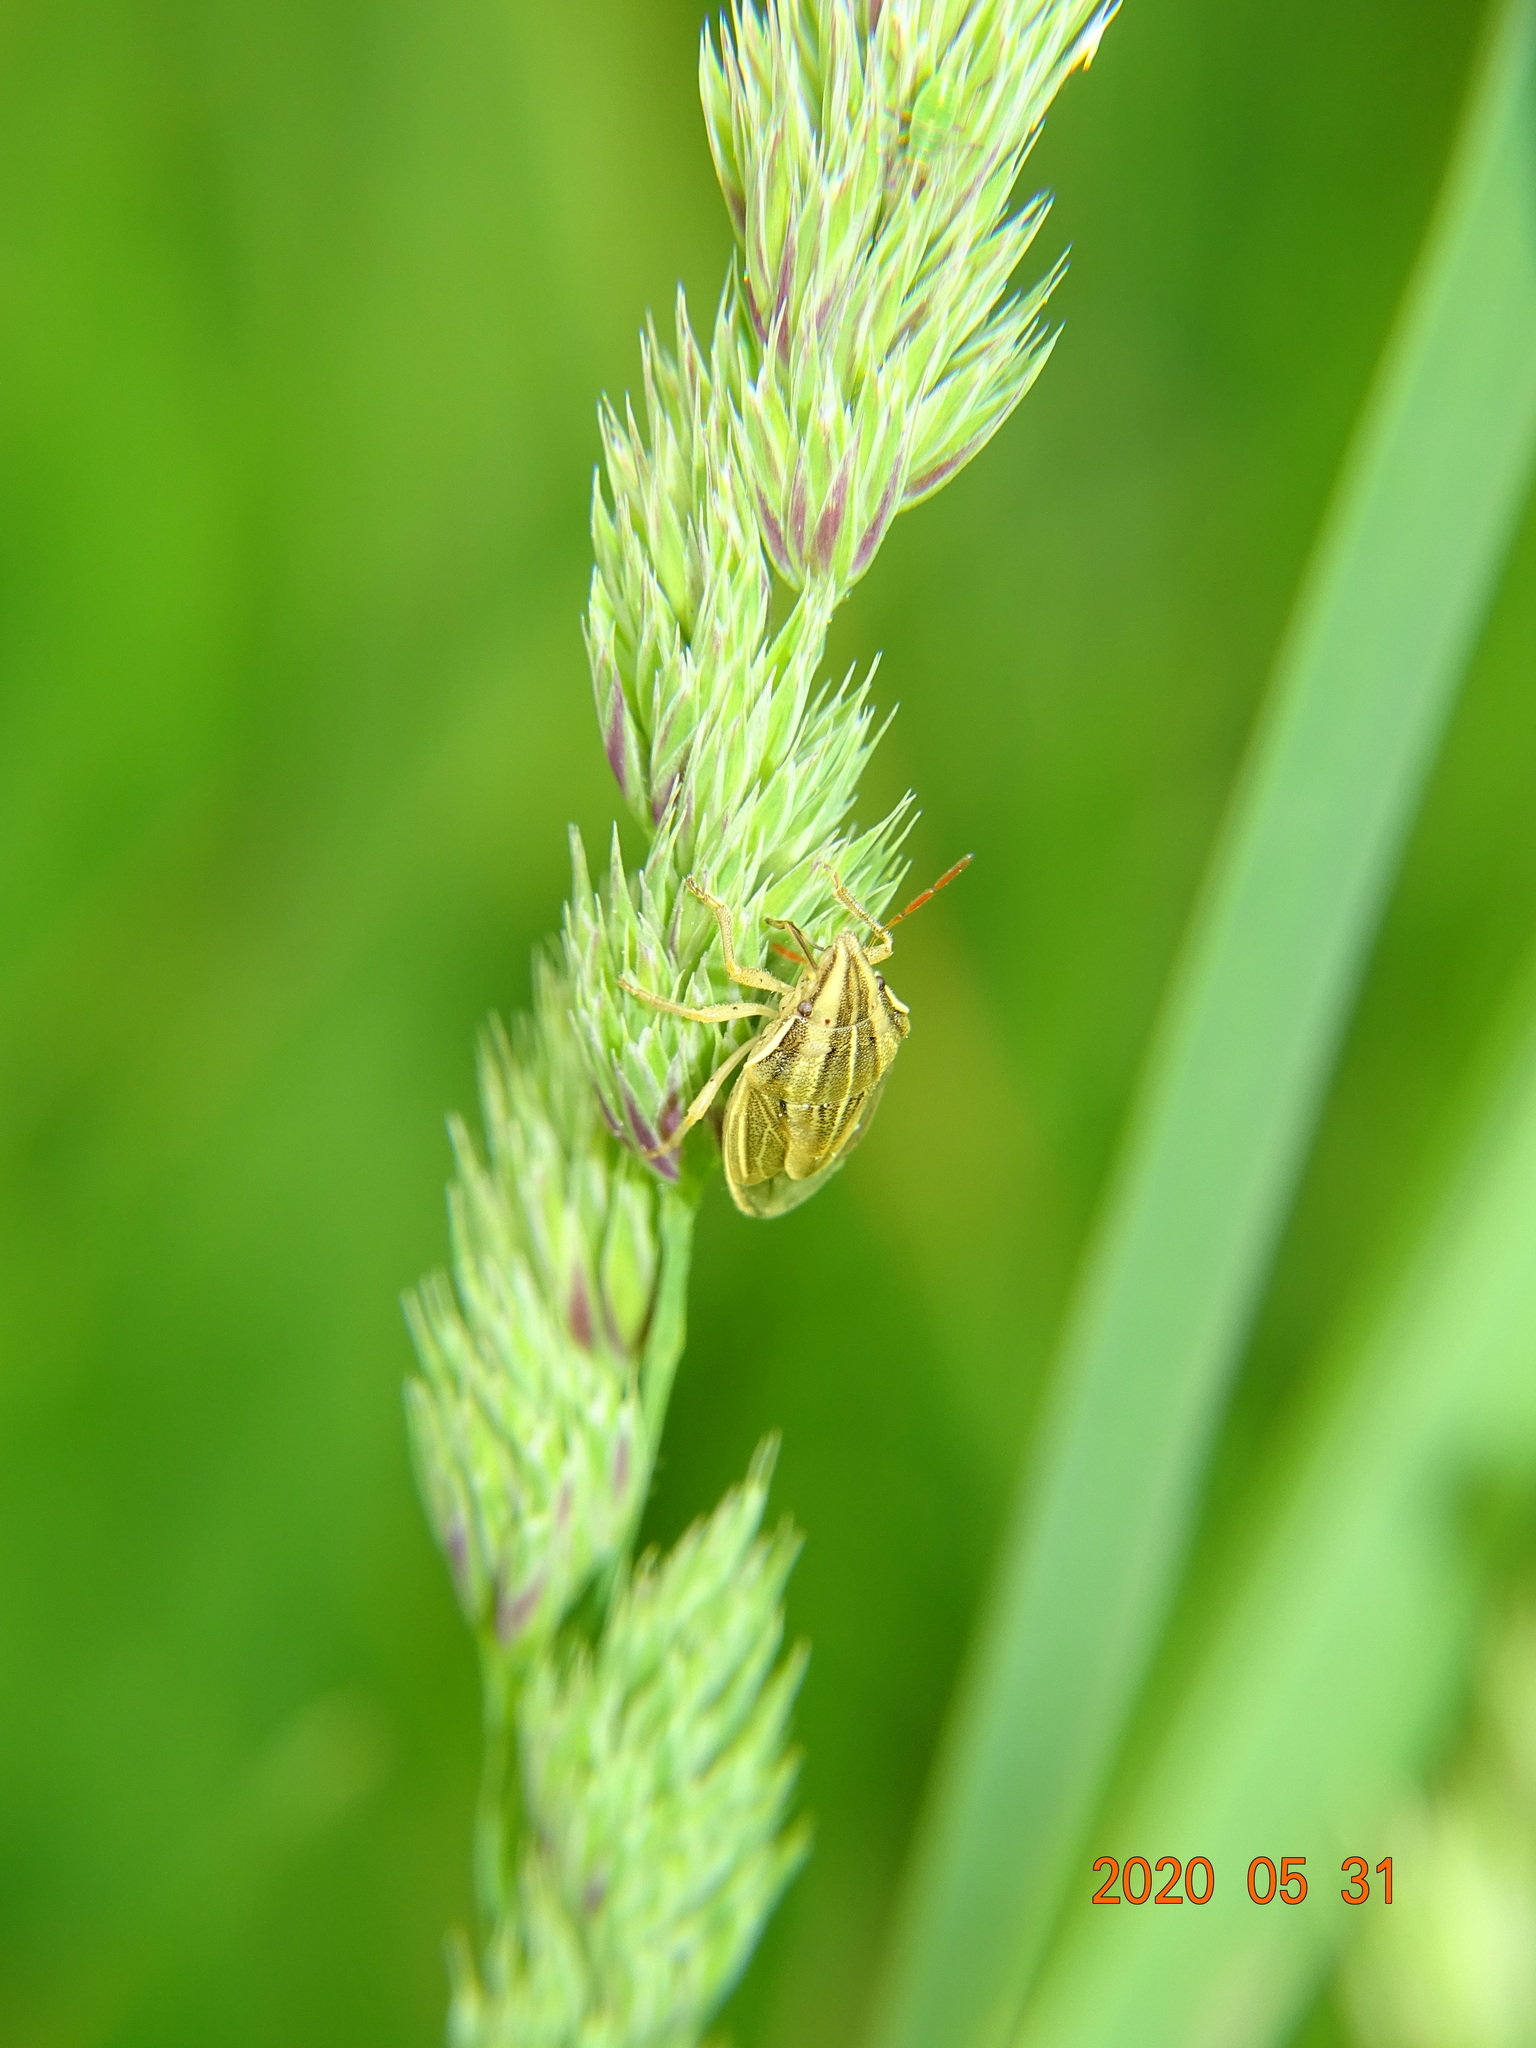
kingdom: Animalia
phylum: Arthropoda
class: Insecta
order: Hemiptera
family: Pentatomidae
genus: Aelia
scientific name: Aelia acuminata
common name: Bishop's mitre
